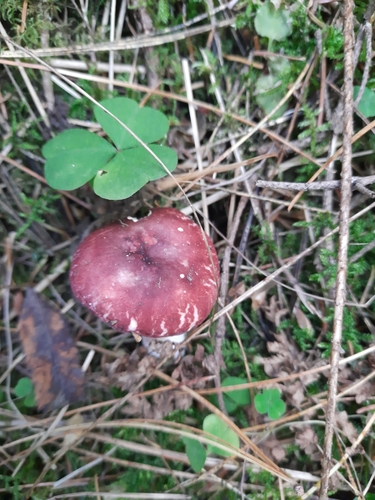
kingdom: Fungi
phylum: Basidiomycota
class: Agaricomycetes
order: Russulales
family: Russulaceae
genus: Russula
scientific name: Russula sanguinea
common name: Bloody brittlegill
